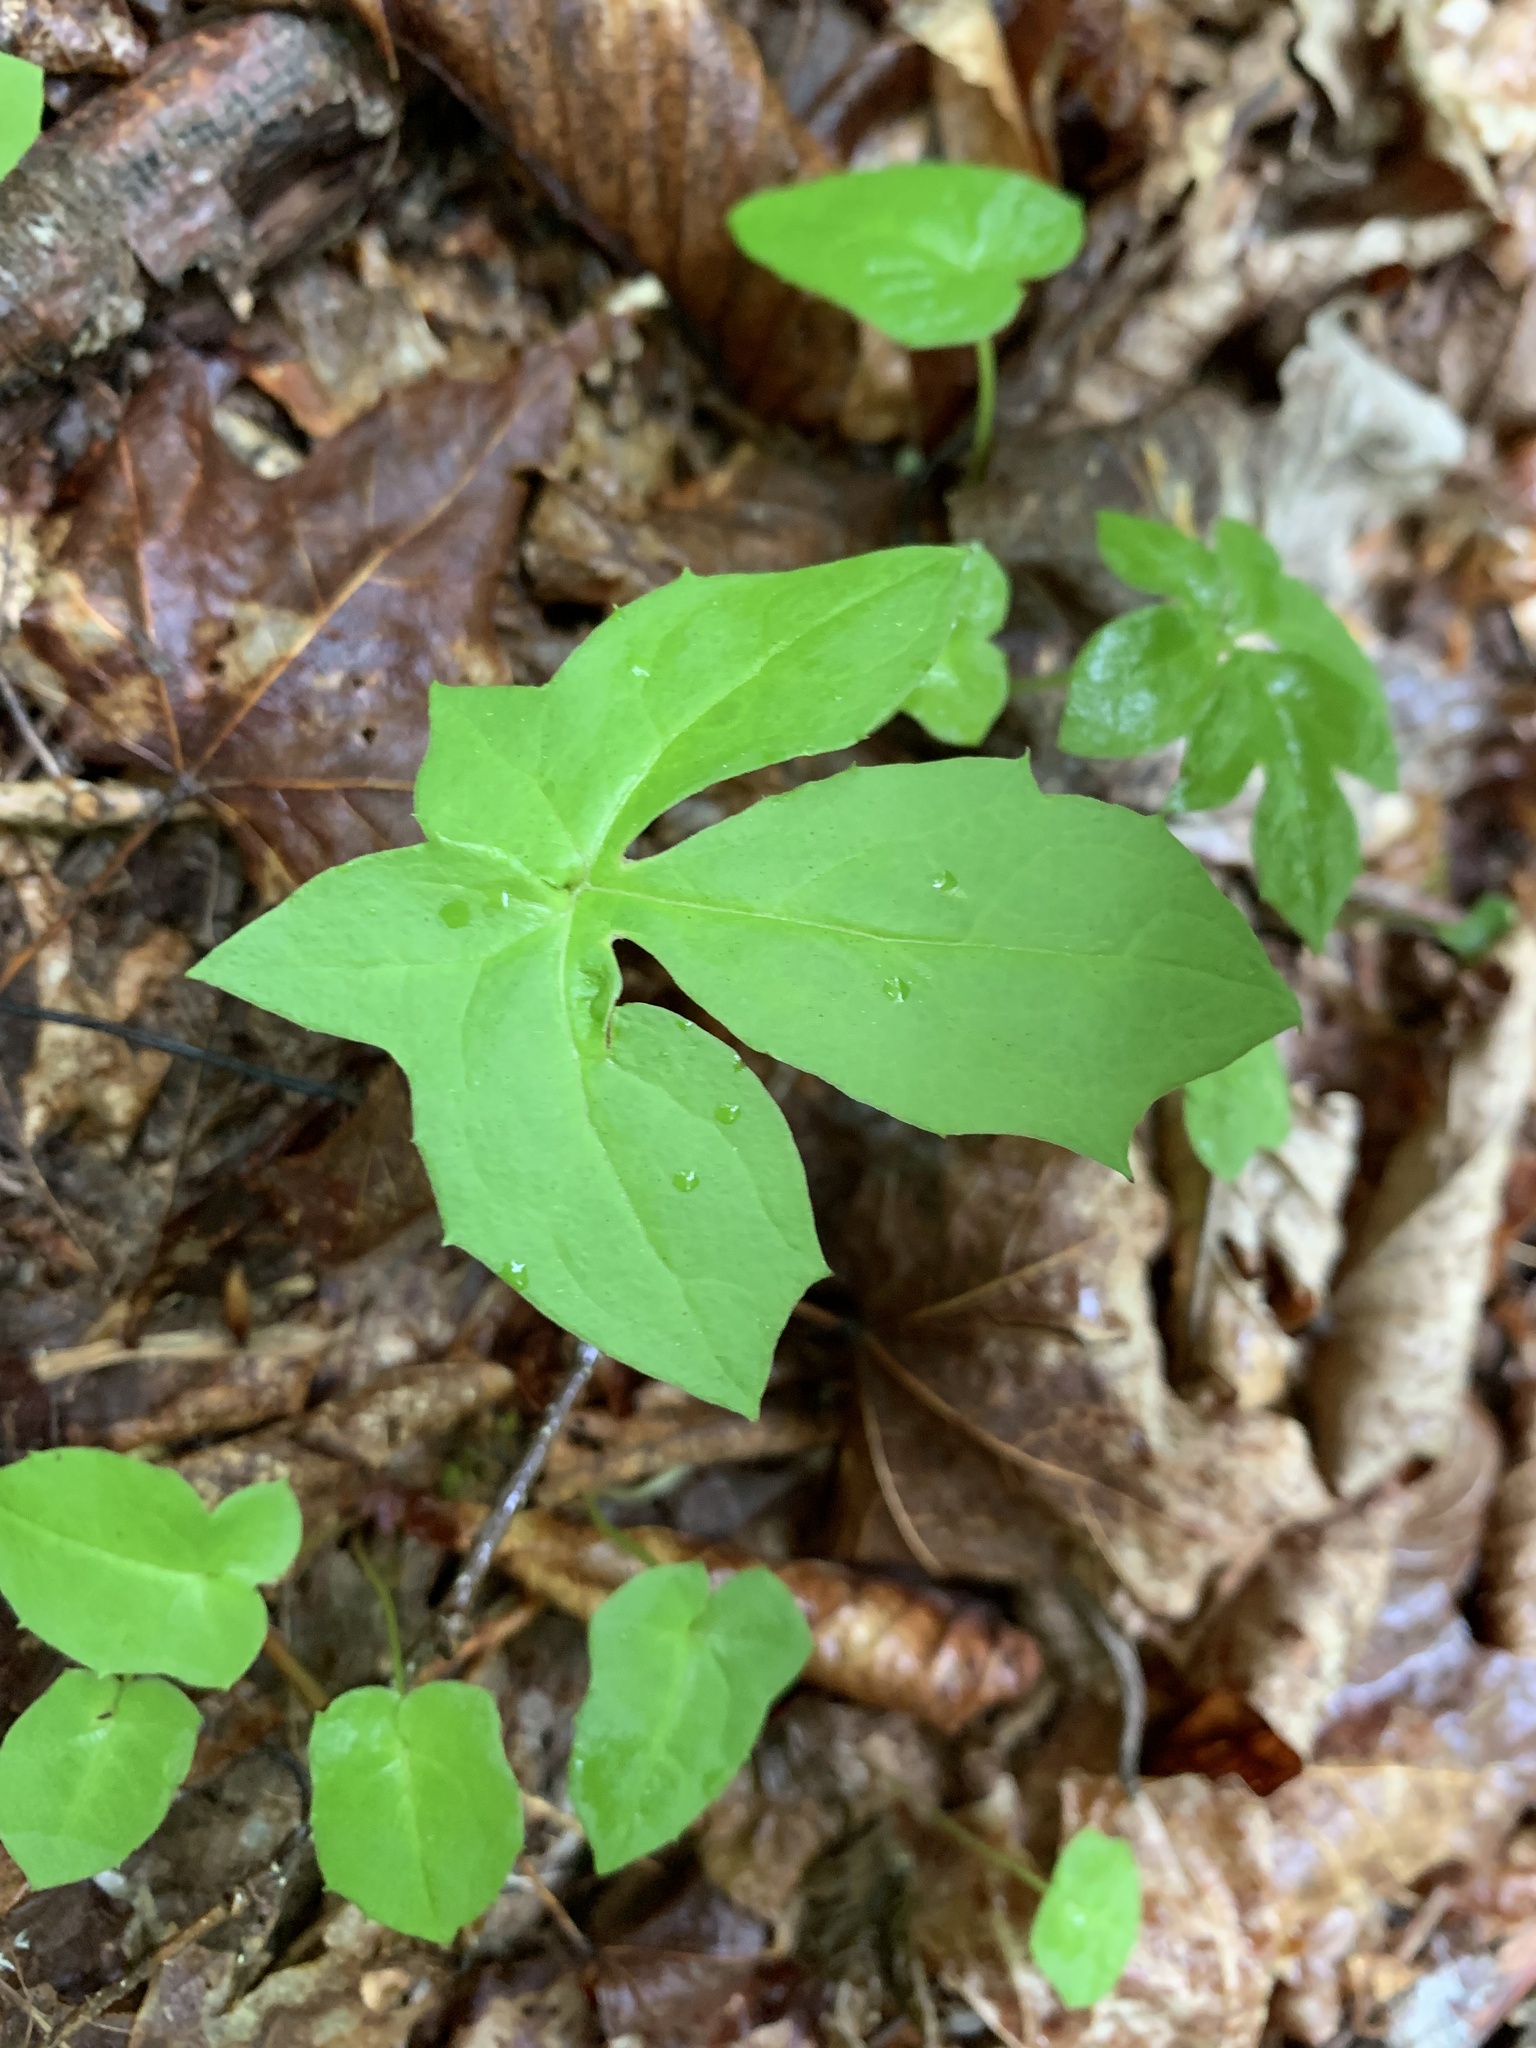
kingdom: Plantae
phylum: Tracheophyta
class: Magnoliopsida
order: Asterales
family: Asteraceae
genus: Nabalus
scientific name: Nabalus trifoliolatus
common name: Gall-of-the-earth
